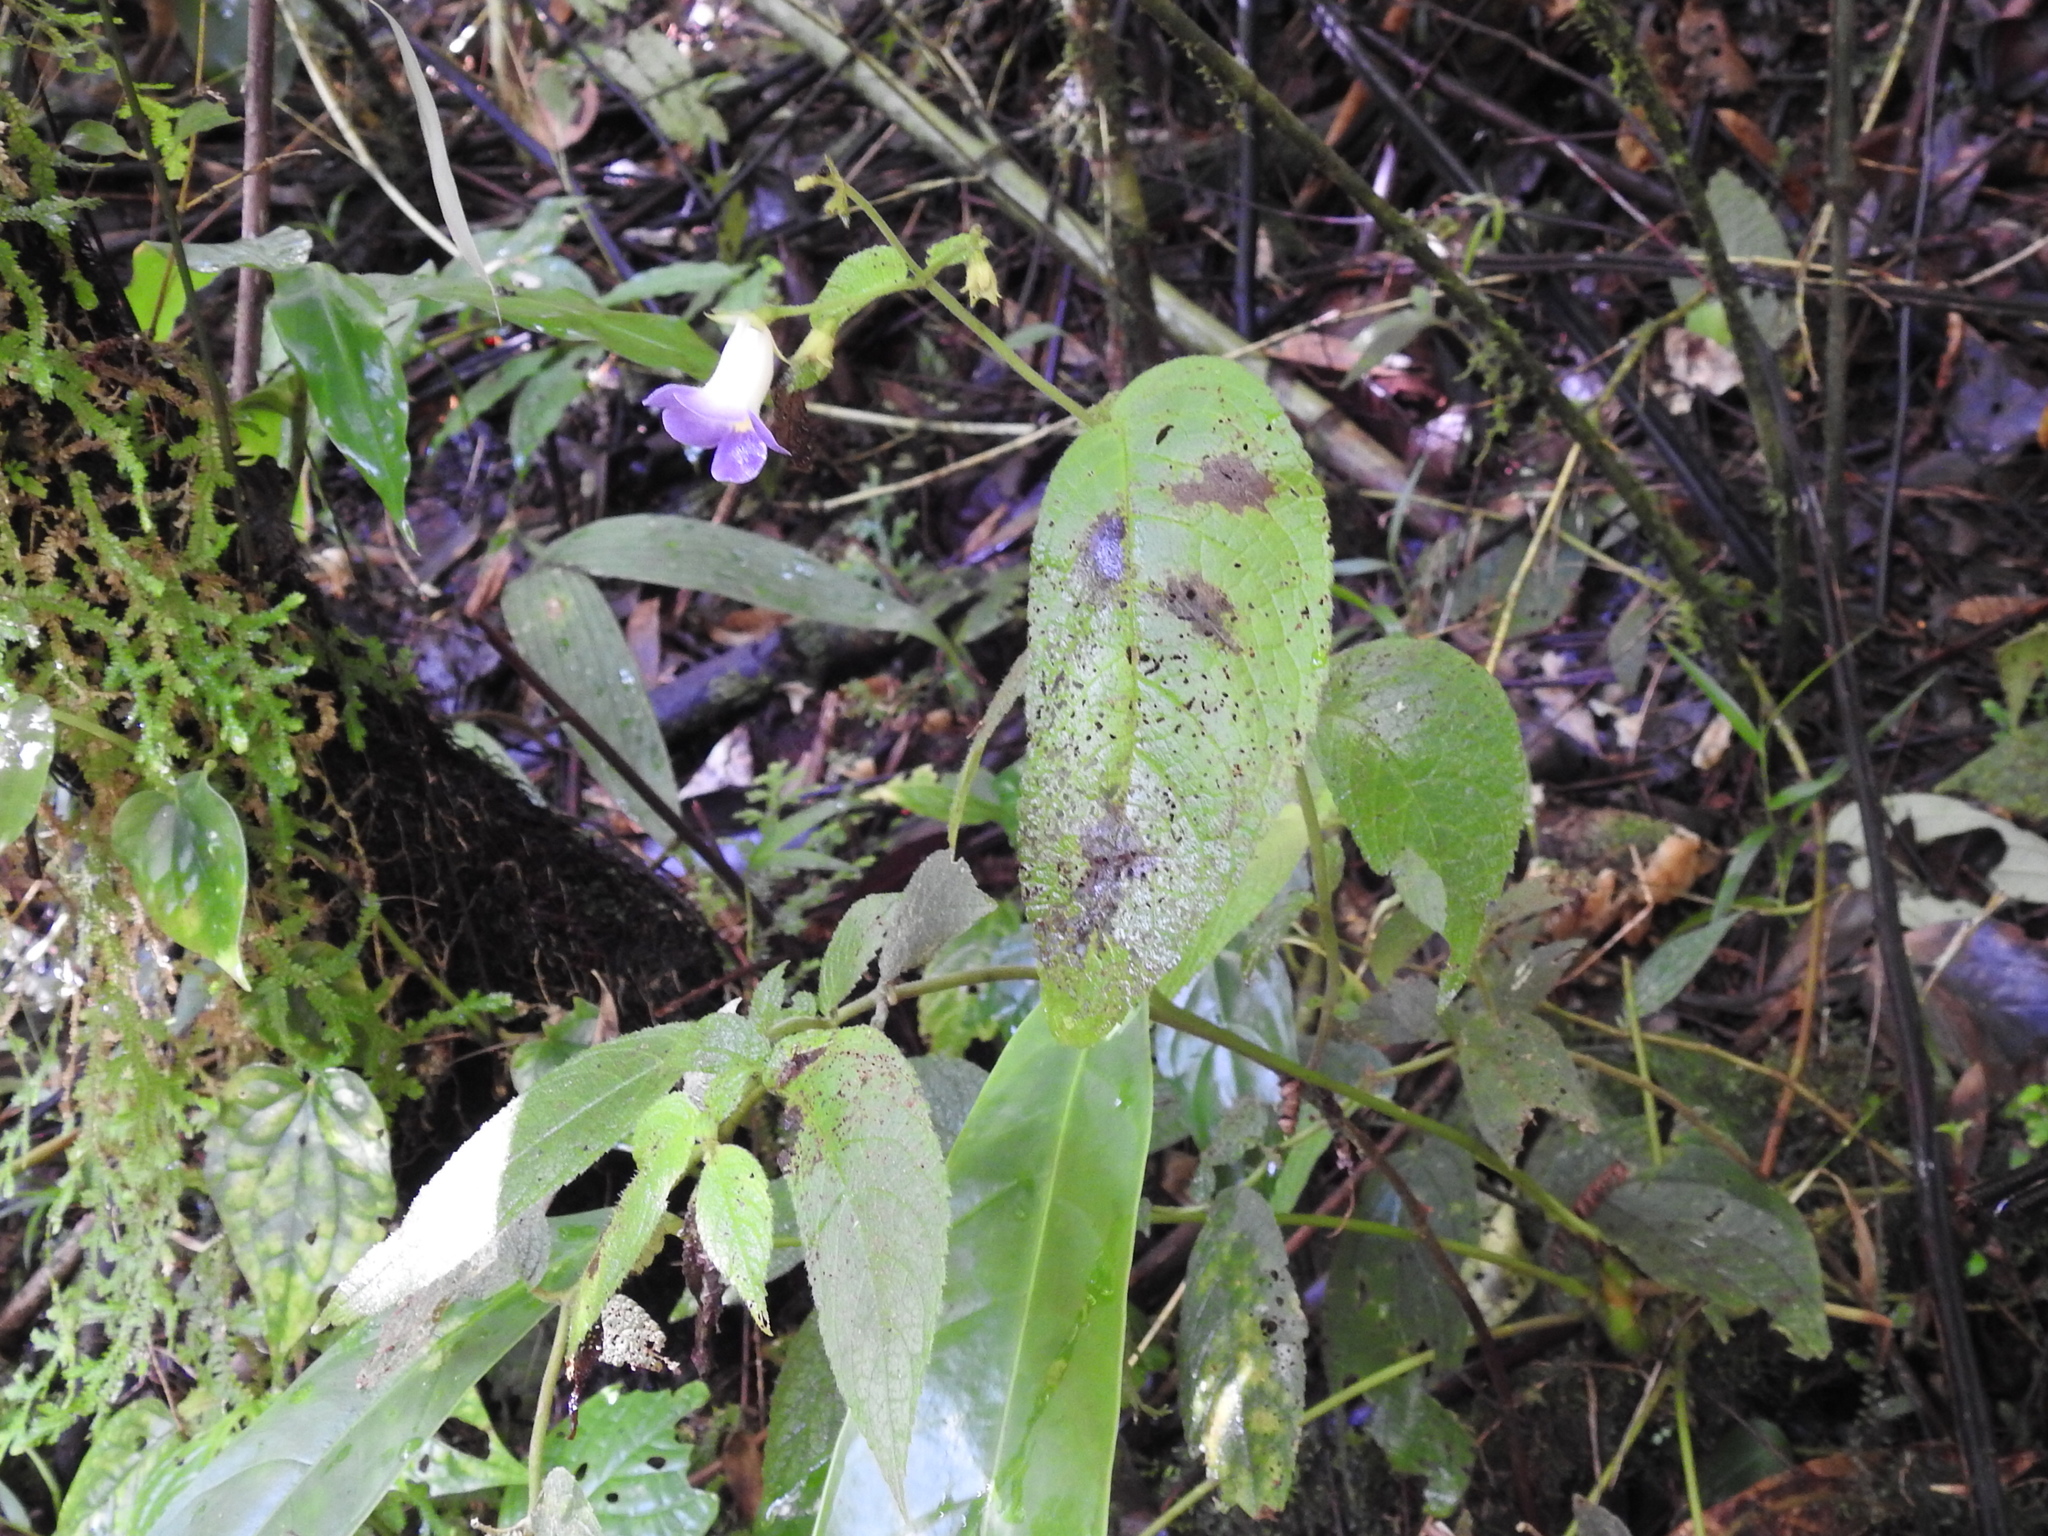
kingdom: Plantae
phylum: Tracheophyta
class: Magnoliopsida
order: Lamiales
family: Gesneriaceae
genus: Monopyle
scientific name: Monopyle puberula
